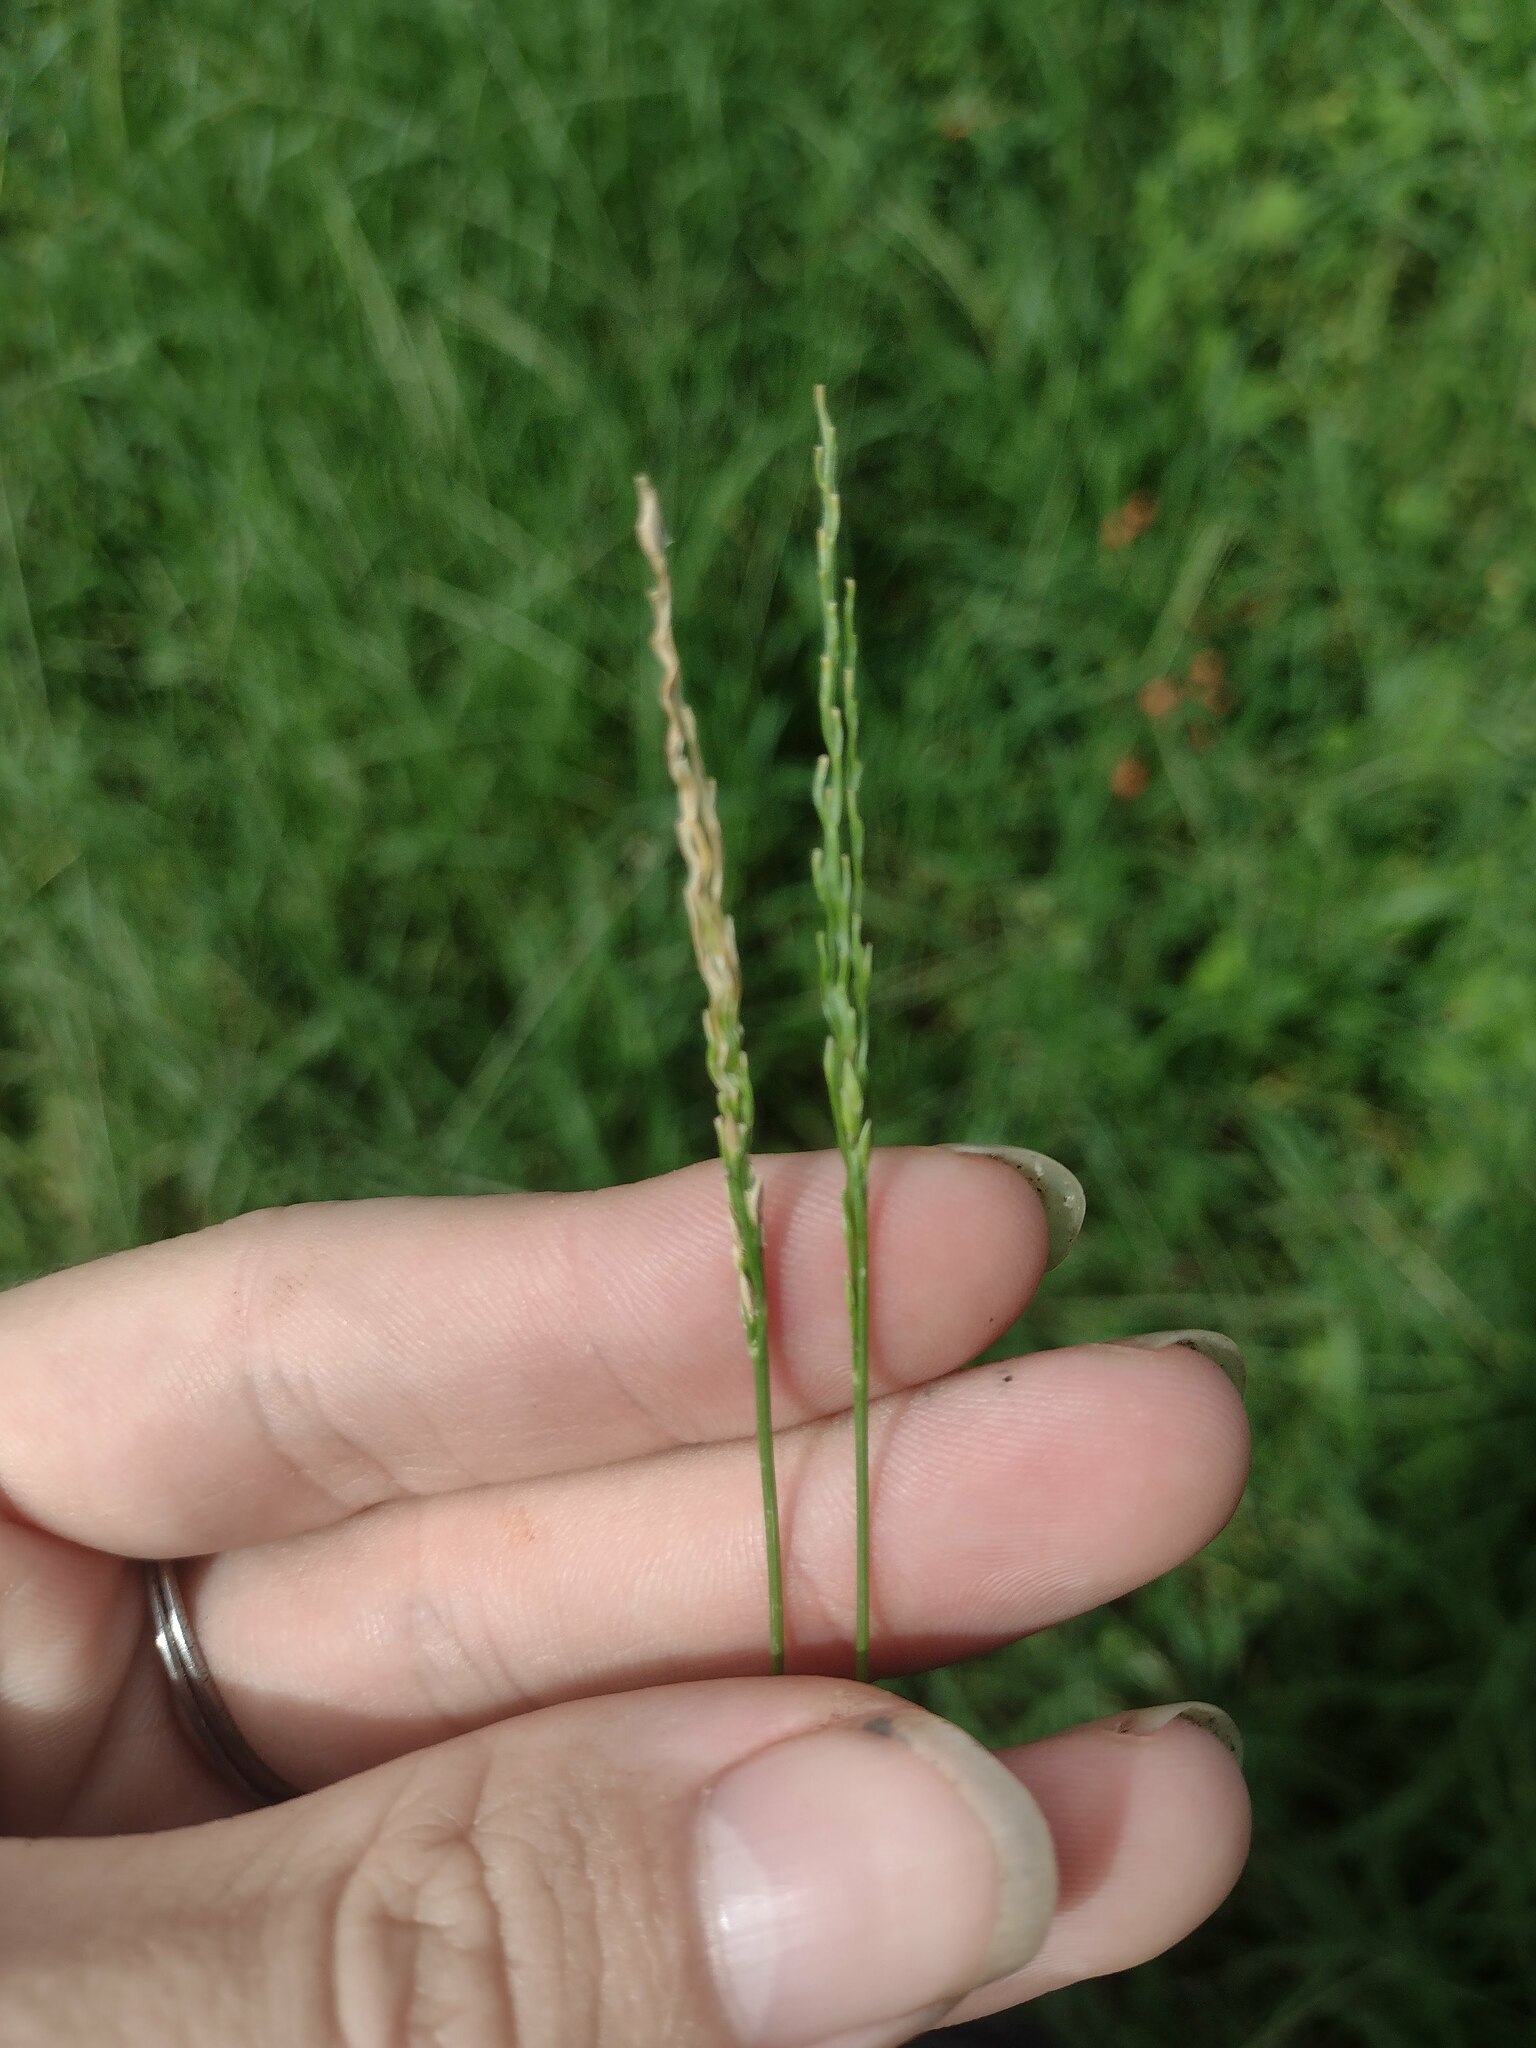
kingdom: Plantae
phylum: Tracheophyta
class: Liliopsida
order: Poales
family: Poaceae
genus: Digitaria
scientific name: Digitaria ciliaris
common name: Tropical finger-grass
